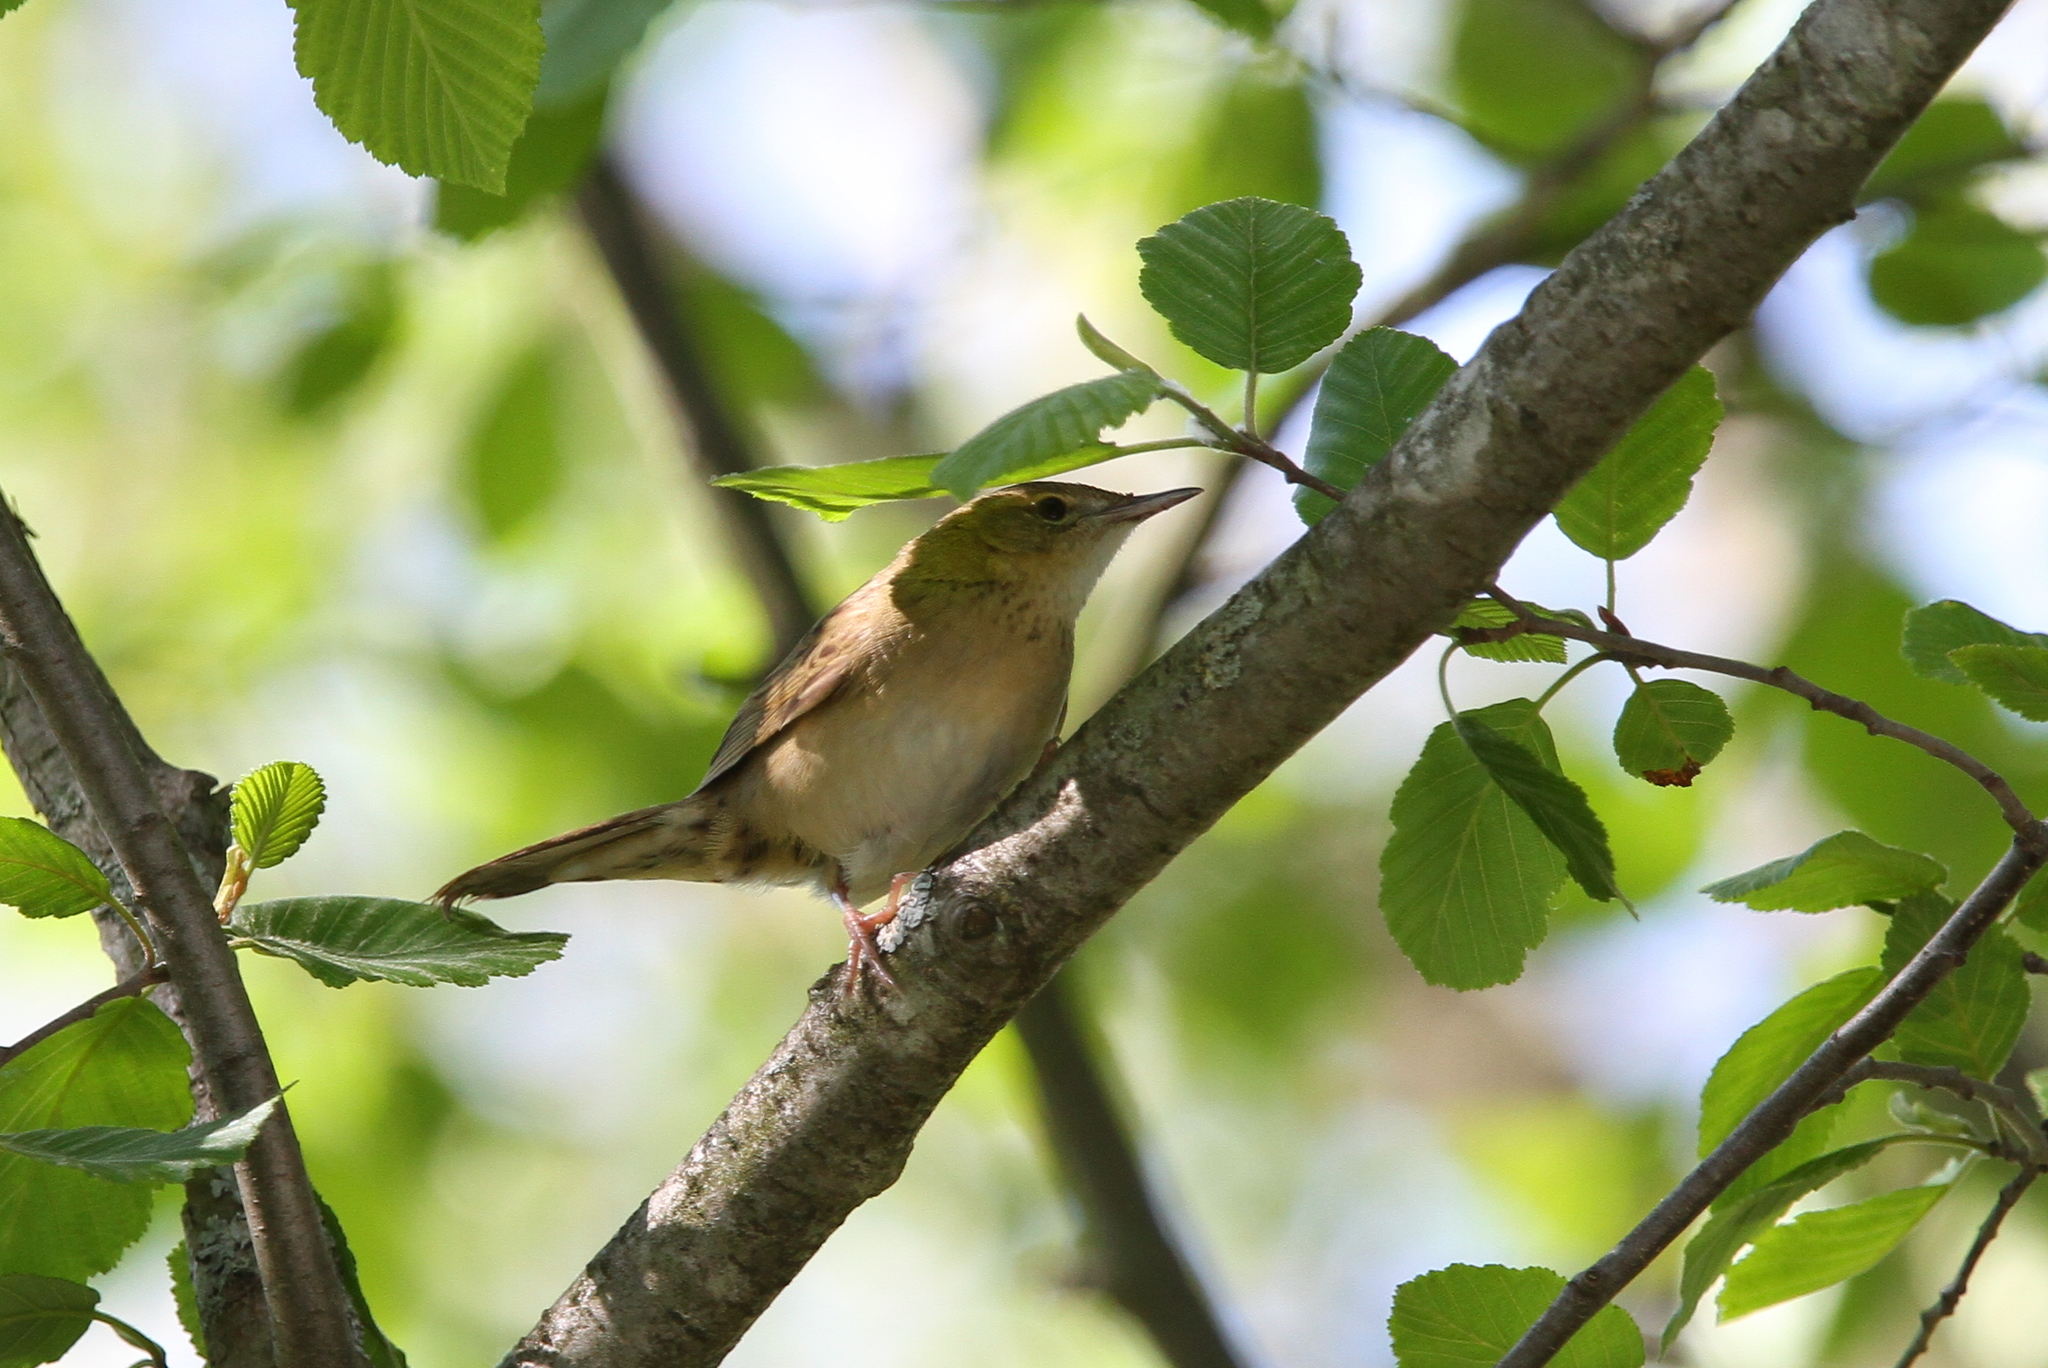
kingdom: Animalia
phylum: Chordata
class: Aves
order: Passeriformes
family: Locustellidae
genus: Locustella
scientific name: Locustella naevia
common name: Common grasshopper warbler
